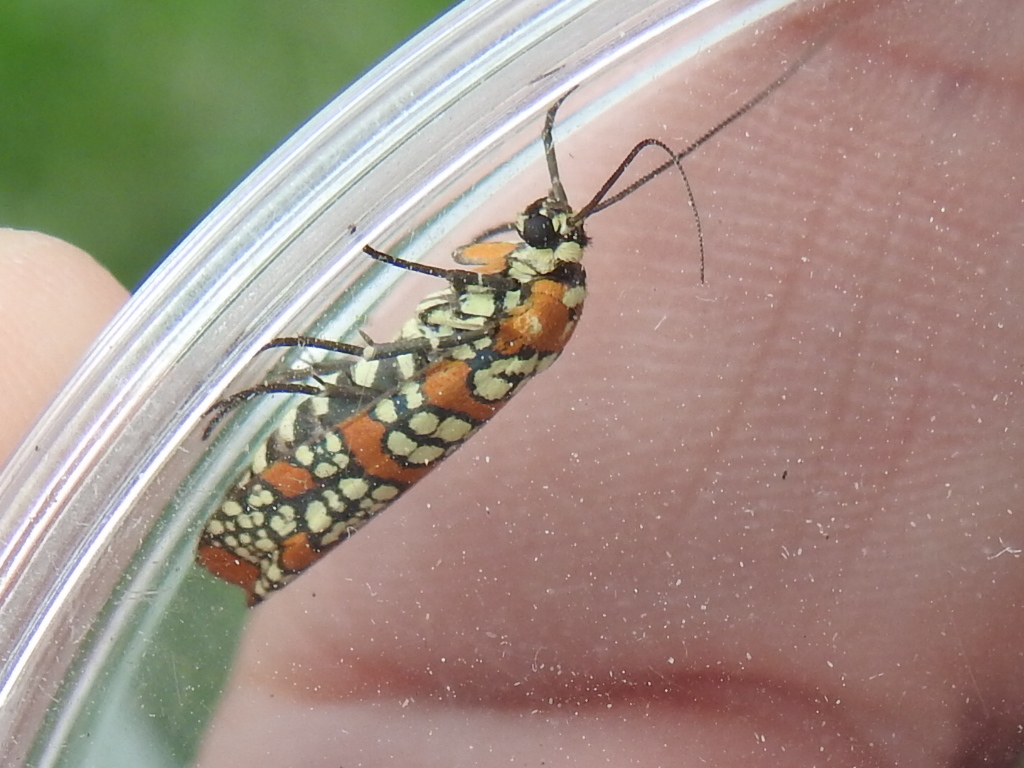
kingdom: Animalia
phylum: Arthropoda
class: Insecta
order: Lepidoptera
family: Attevidae
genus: Atteva
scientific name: Atteva punctella
